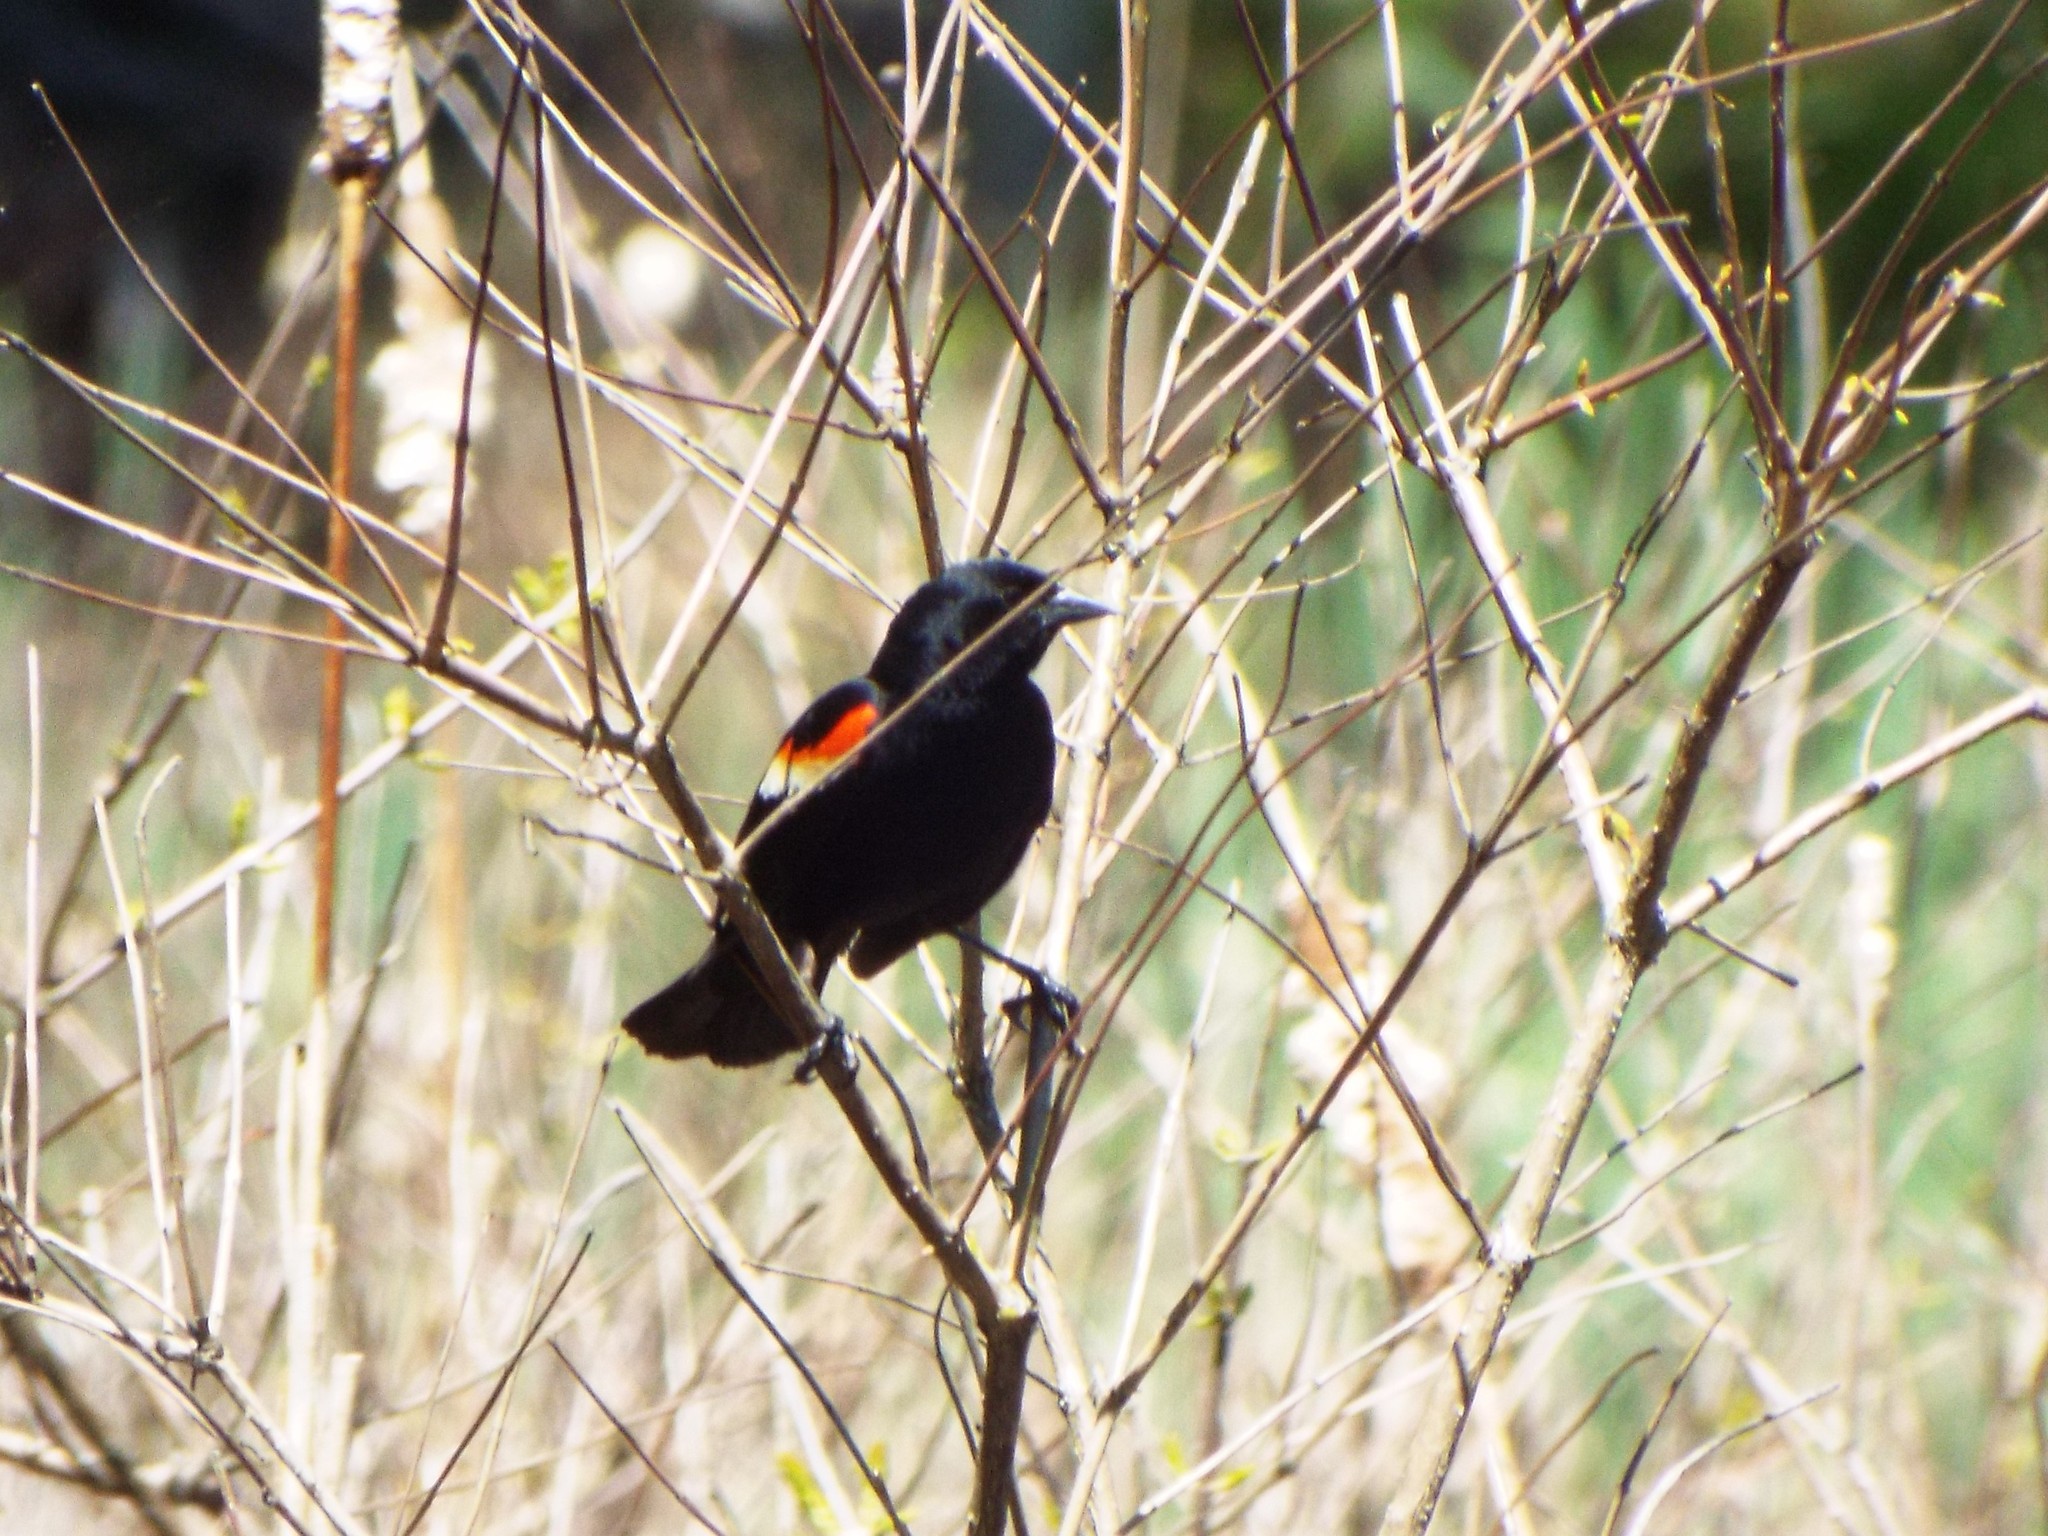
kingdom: Animalia
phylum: Chordata
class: Aves
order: Passeriformes
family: Icteridae
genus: Agelaius
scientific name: Agelaius phoeniceus
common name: Red-winged blackbird
